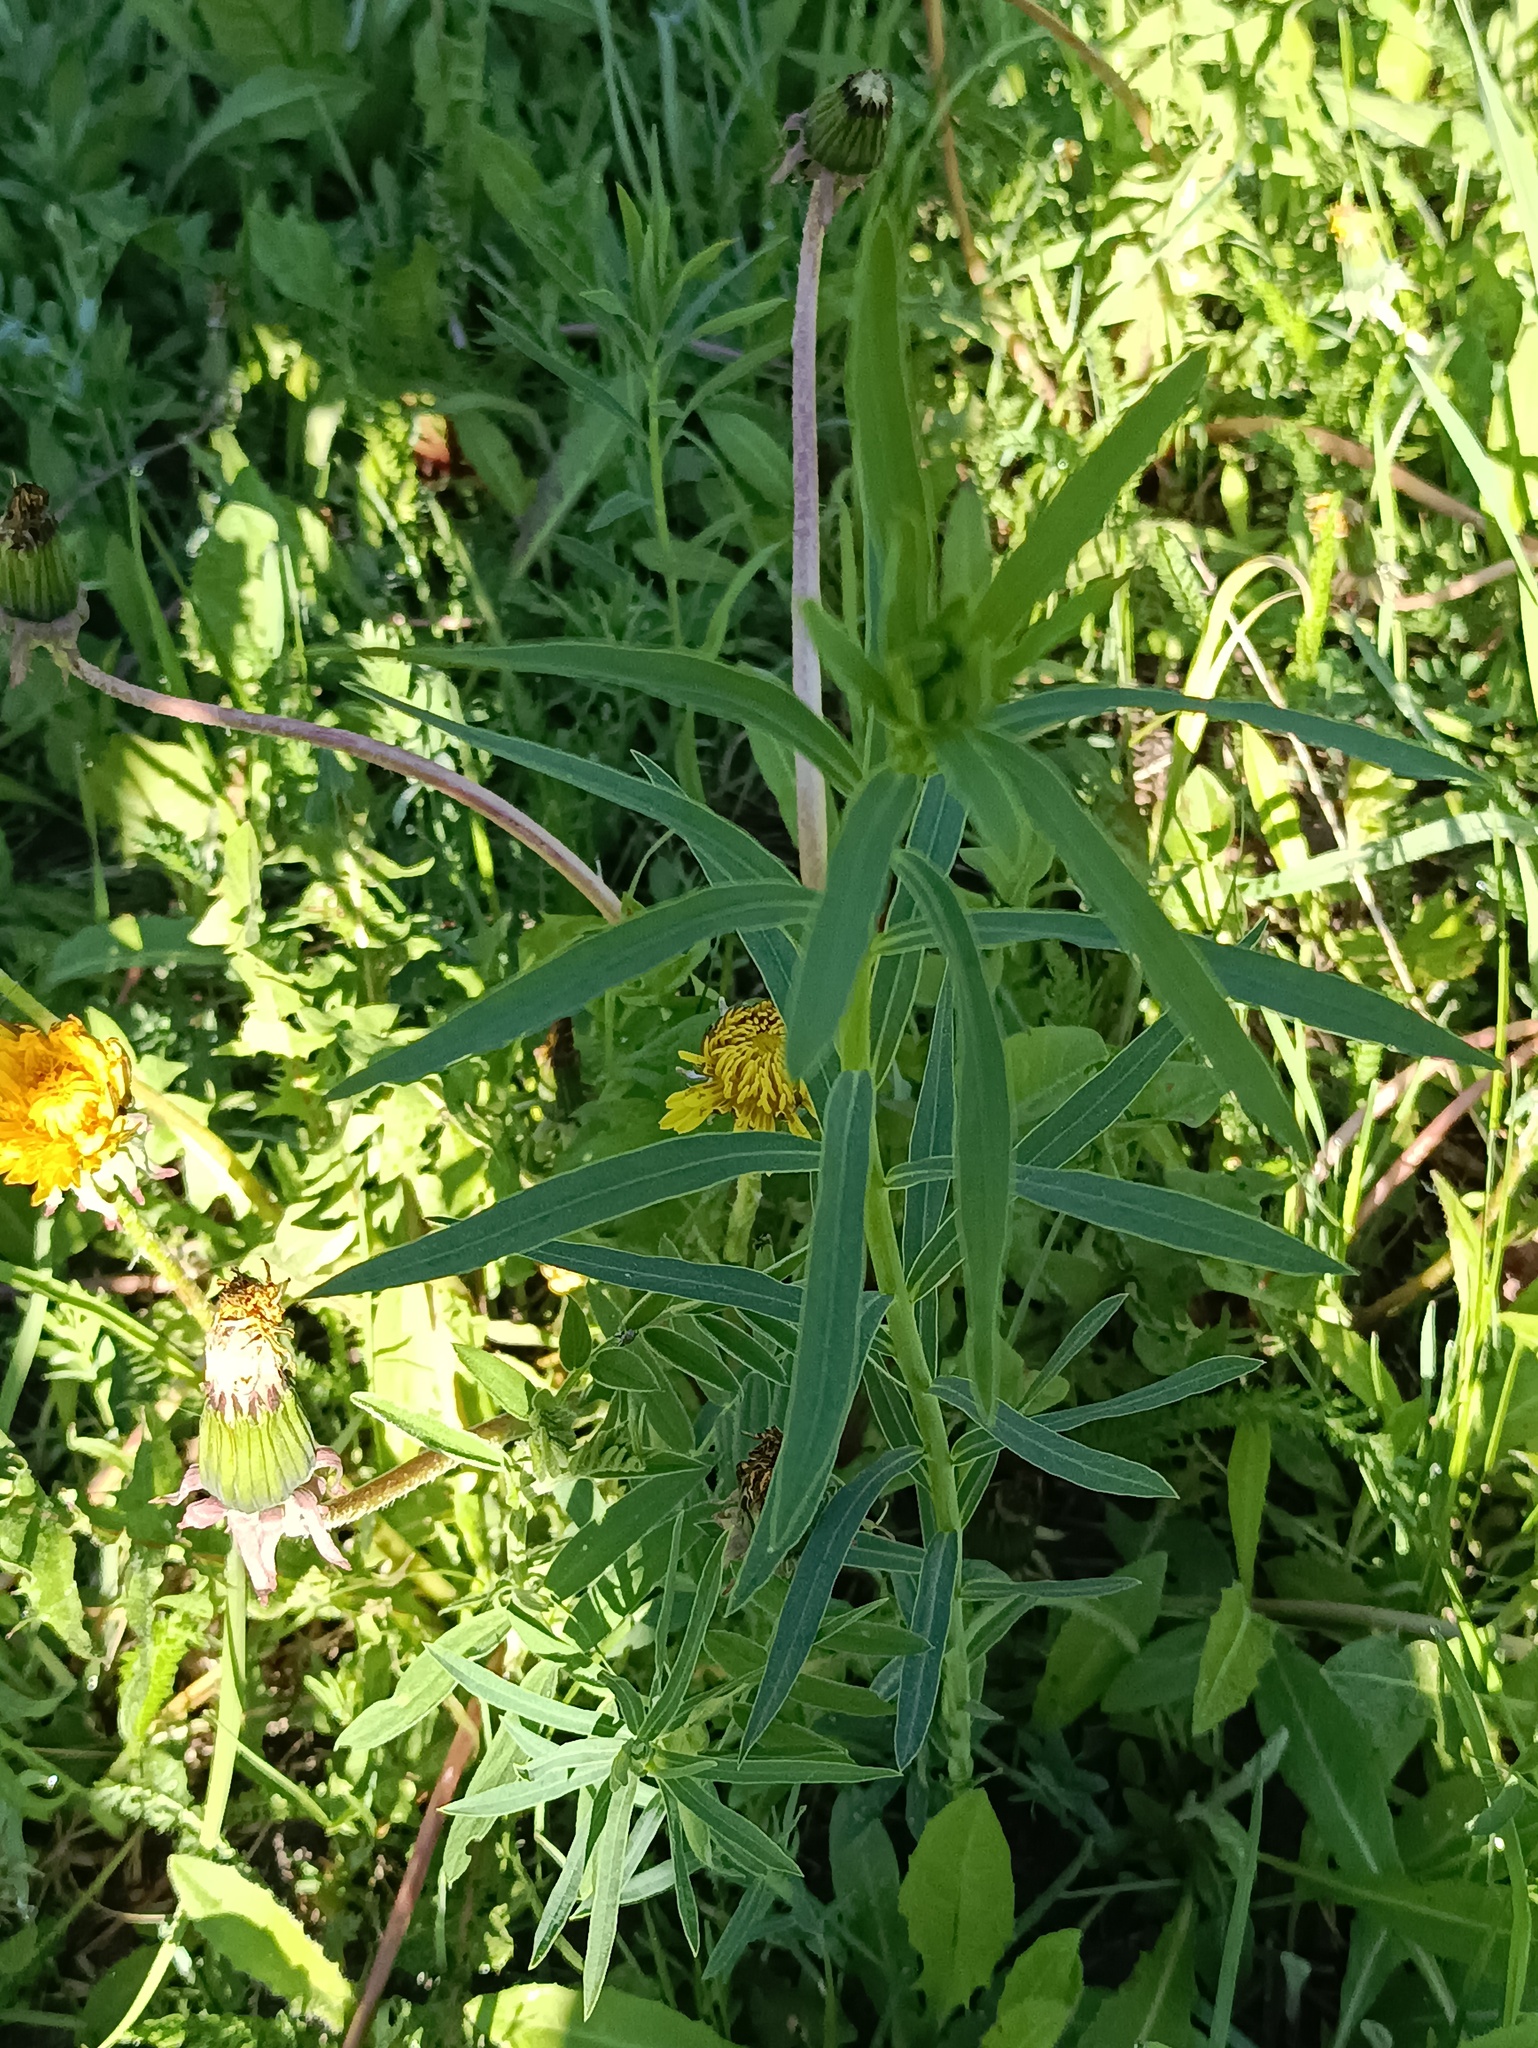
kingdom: Plantae
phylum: Tracheophyta
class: Magnoliopsida
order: Malpighiales
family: Euphorbiaceae
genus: Euphorbia
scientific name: Euphorbia virgata
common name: Leafy spurge
